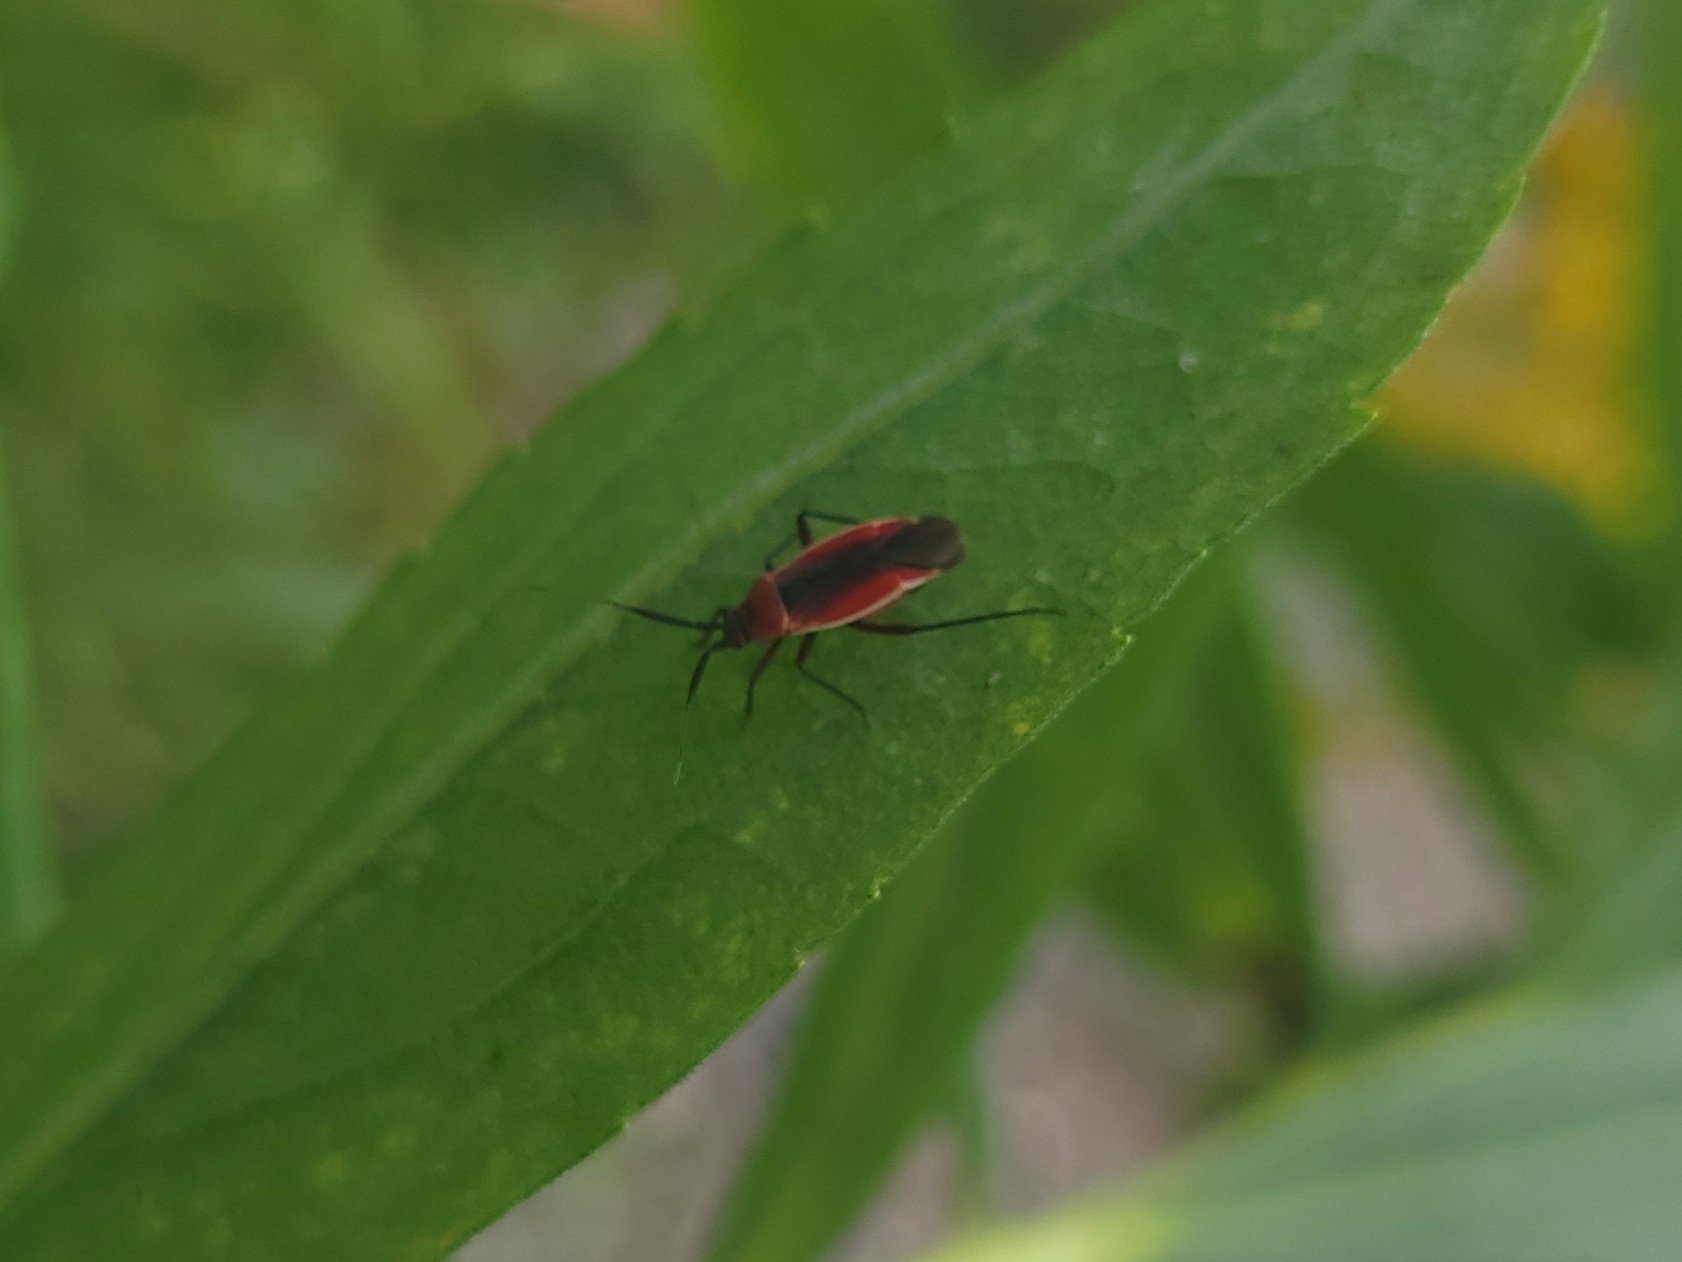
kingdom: Animalia
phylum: Arthropoda
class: Insecta
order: Hemiptera
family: Miridae
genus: Lopidea
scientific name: Lopidea instabilis
